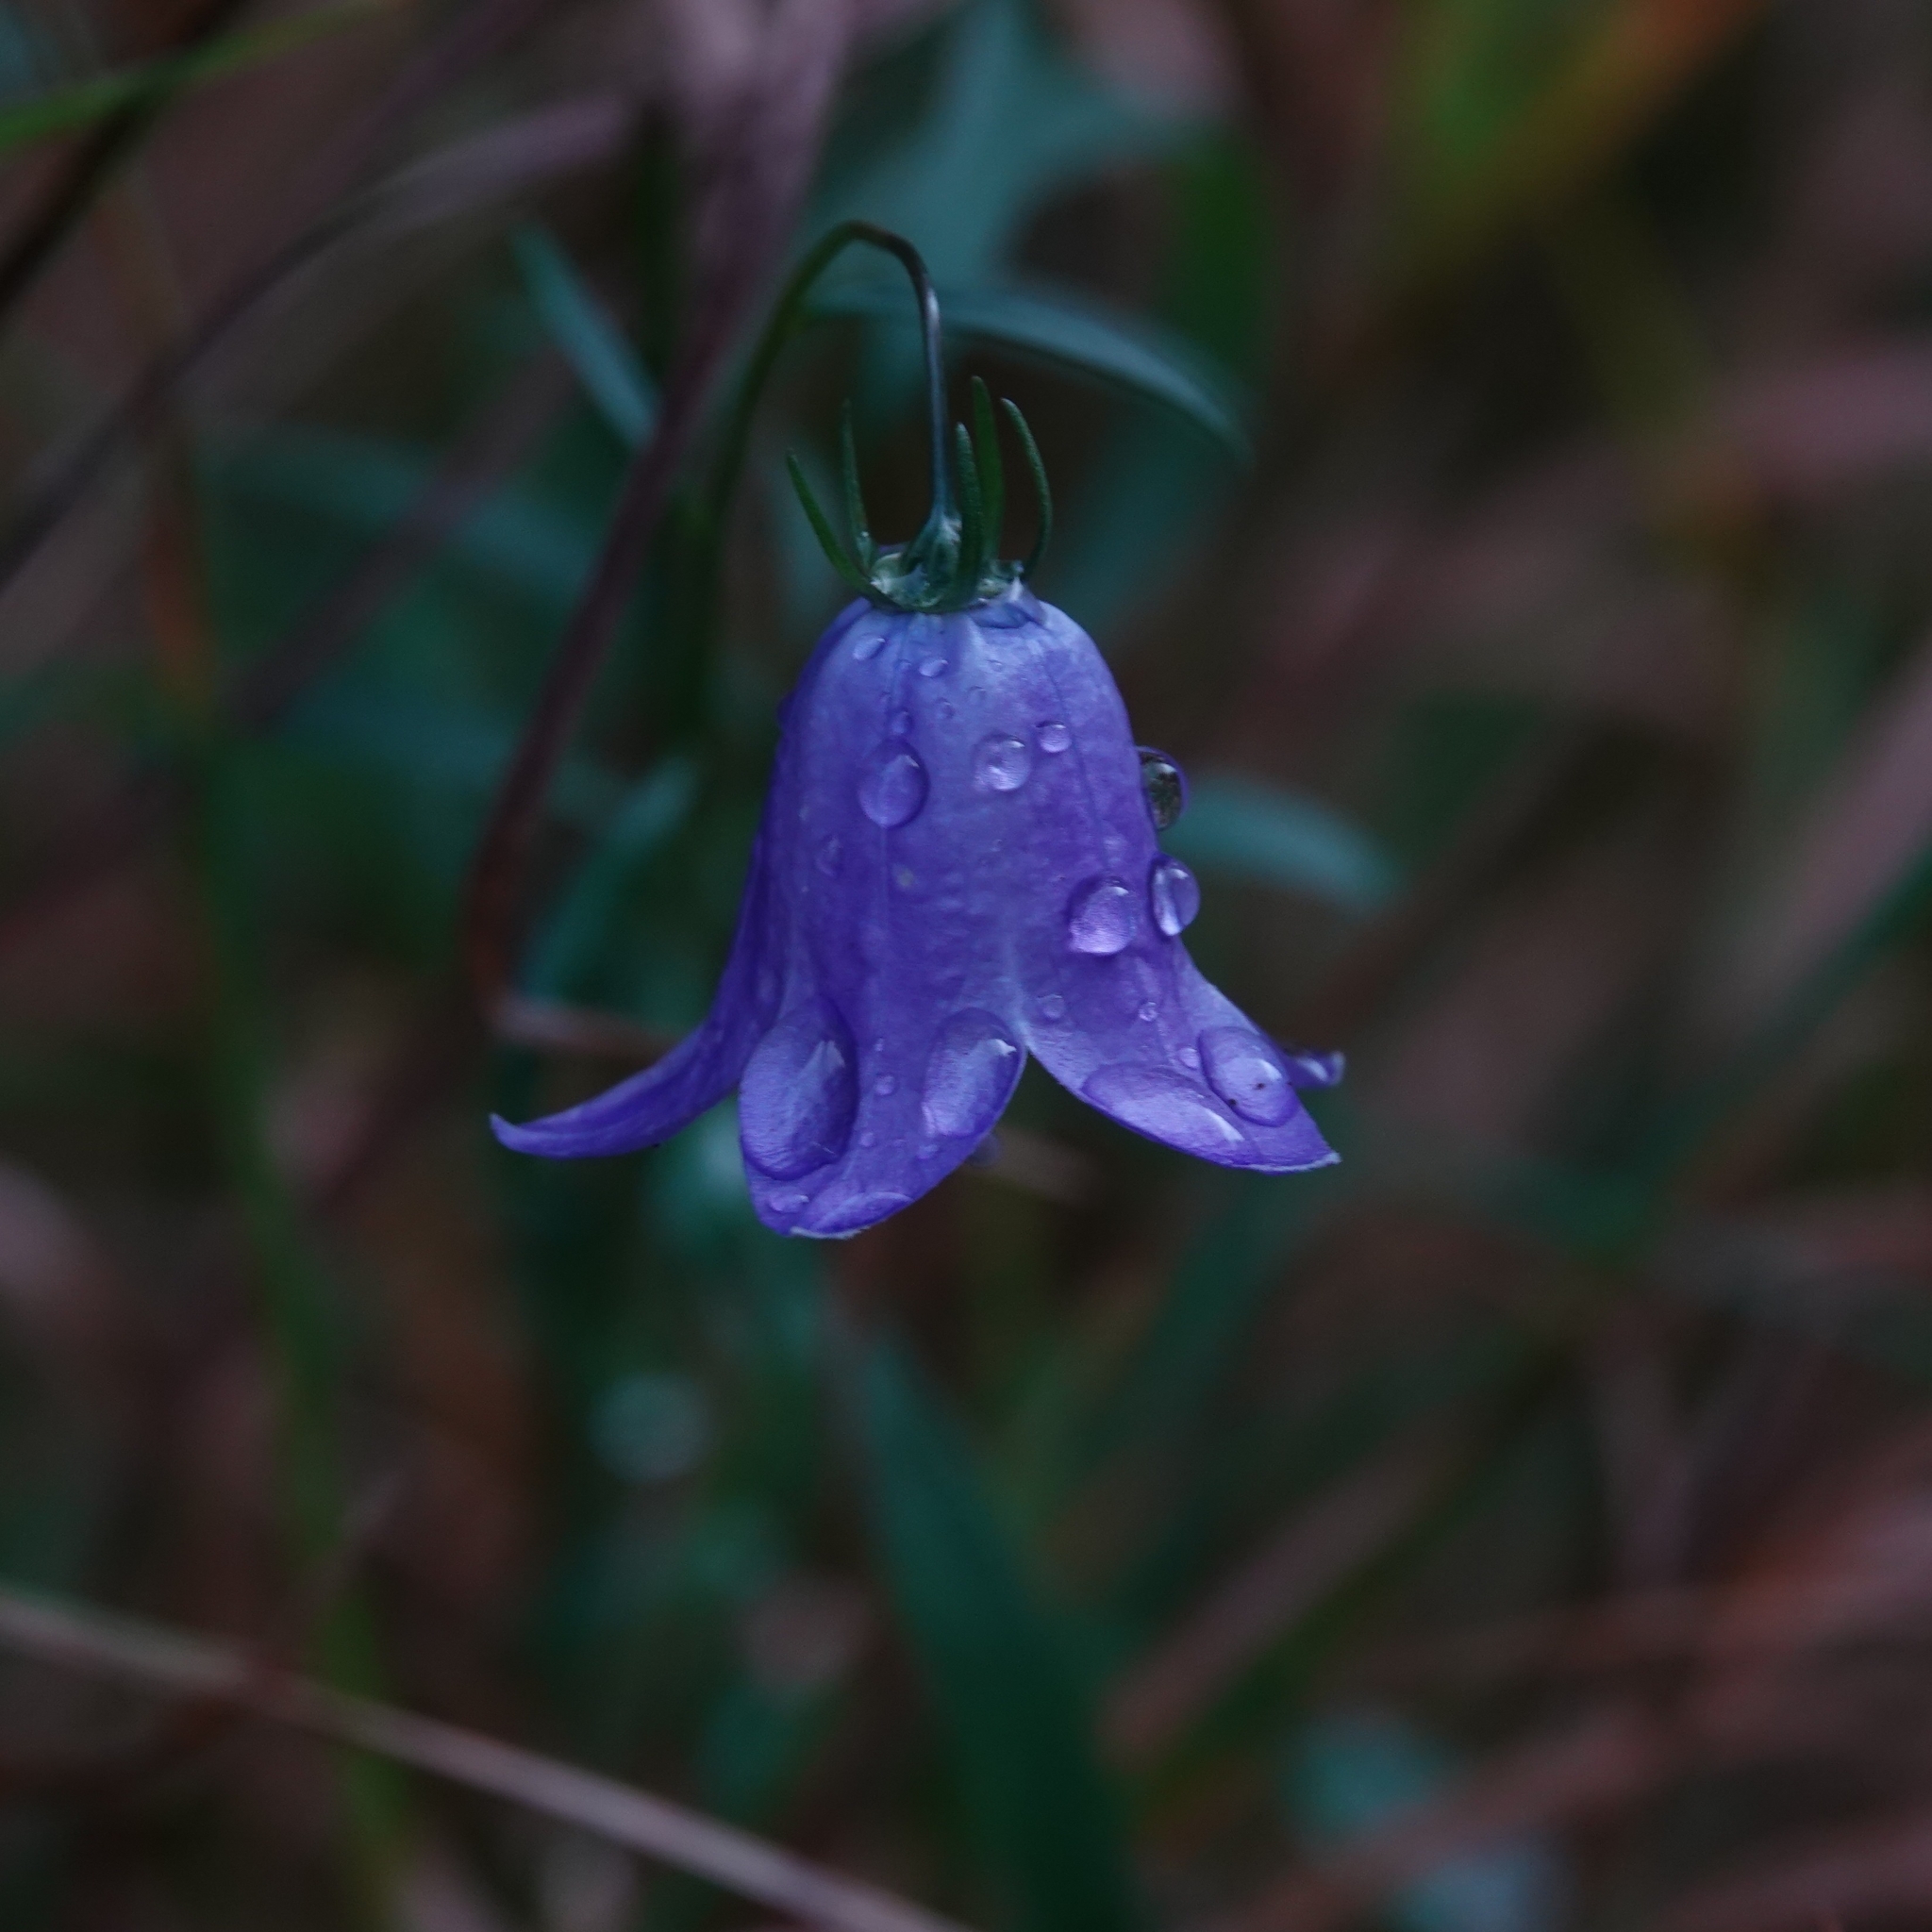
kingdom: Plantae
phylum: Tracheophyta
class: Magnoliopsida
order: Asterales
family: Campanulaceae
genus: Campanula
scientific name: Campanula rotundifolia
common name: Harebell
